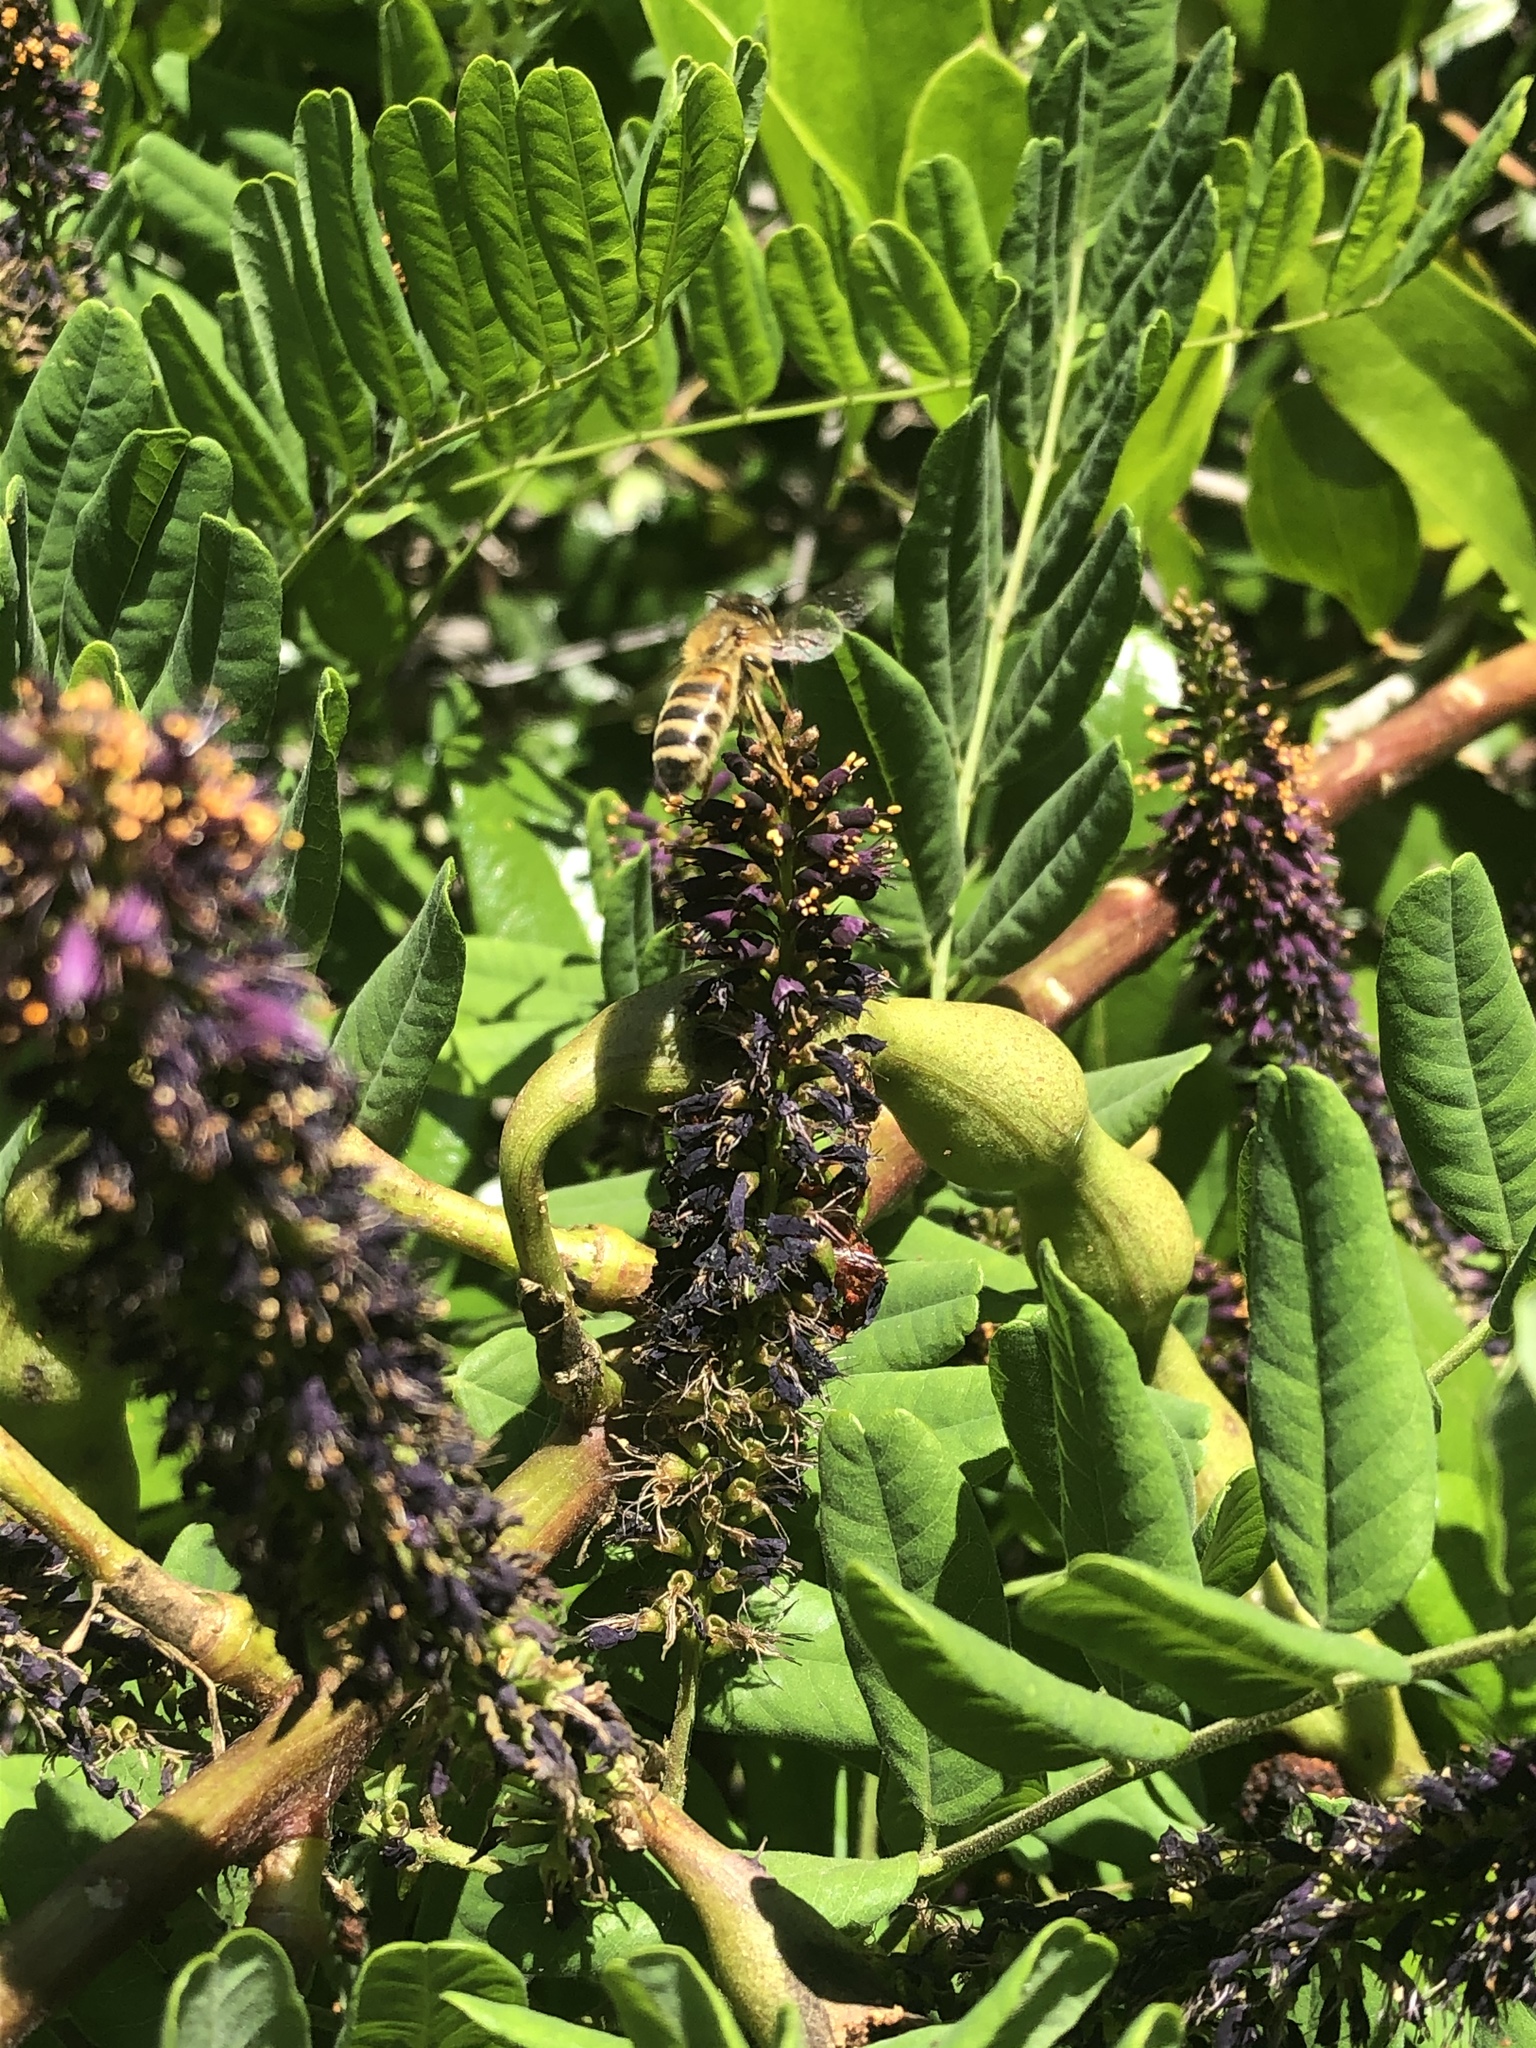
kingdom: Animalia
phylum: Arthropoda
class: Insecta
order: Hymenoptera
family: Apidae
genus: Apis
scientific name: Apis mellifera
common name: Honey bee
